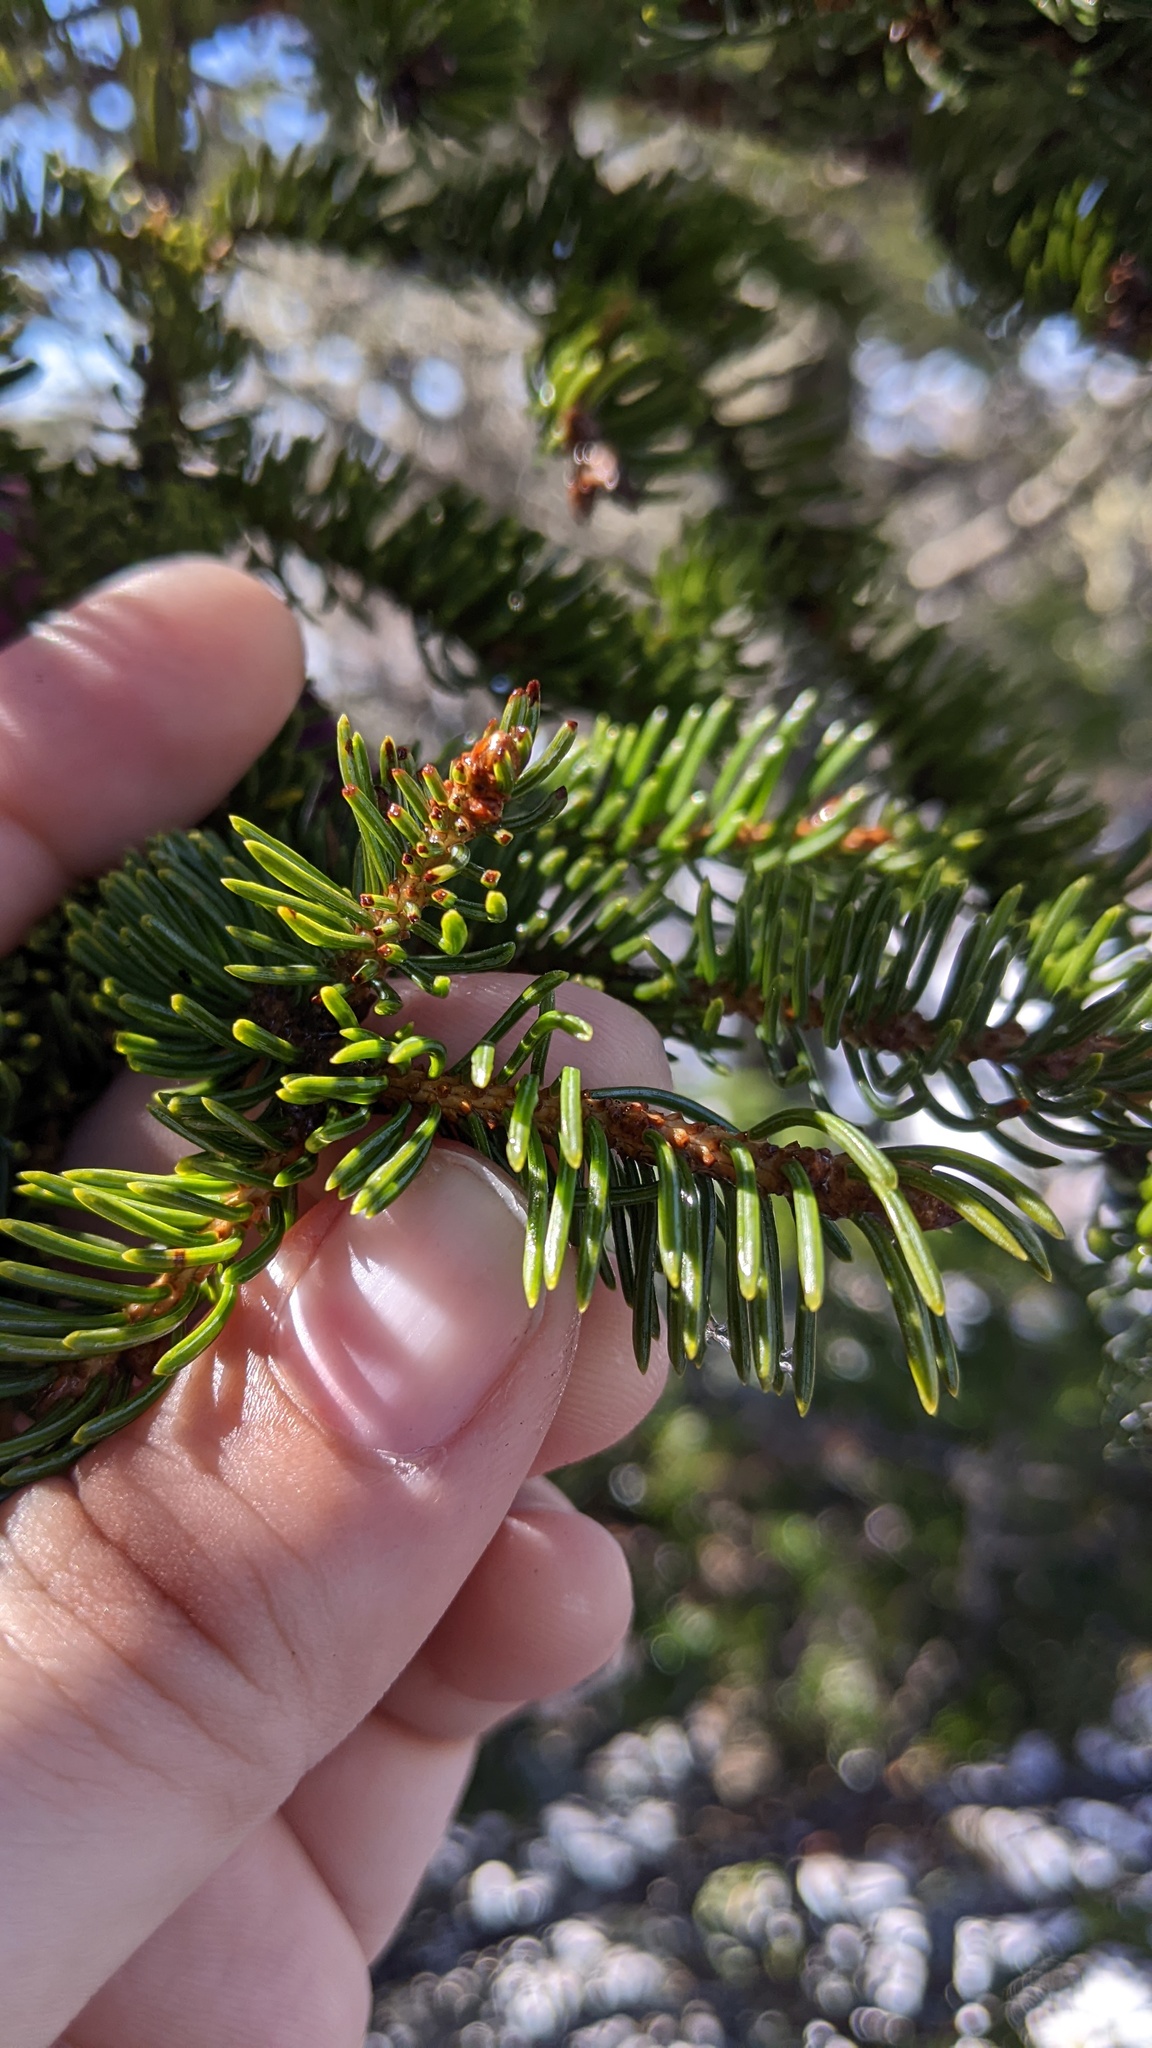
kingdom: Plantae
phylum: Tracheophyta
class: Pinopsida
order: Pinales
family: Pinaceae
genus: Picea
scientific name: Picea glauca
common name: White spruce
